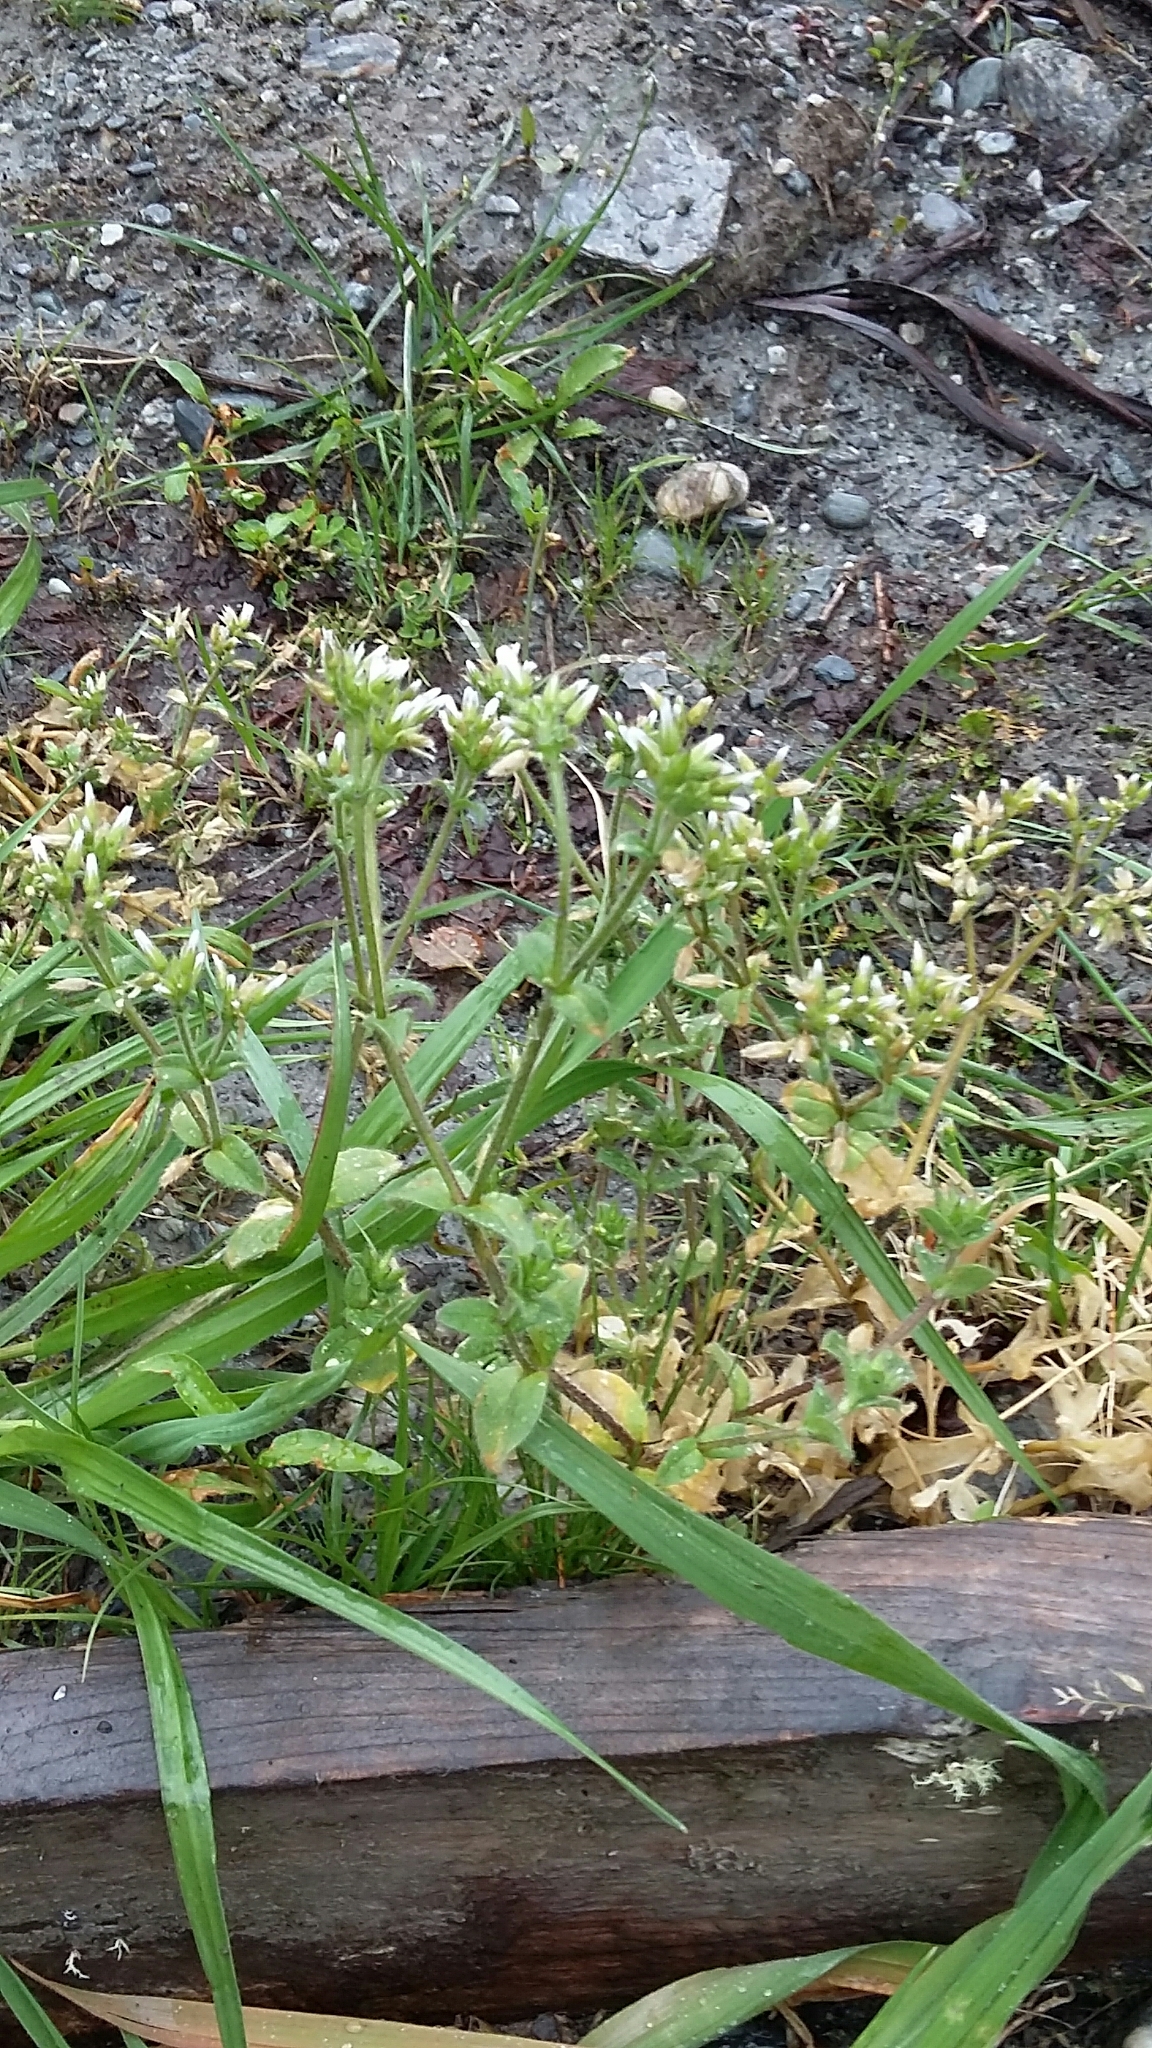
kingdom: Plantae
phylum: Tracheophyta
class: Magnoliopsida
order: Caryophyllales
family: Caryophyllaceae
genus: Cerastium
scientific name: Cerastium glomeratum
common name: Sticky chickweed
